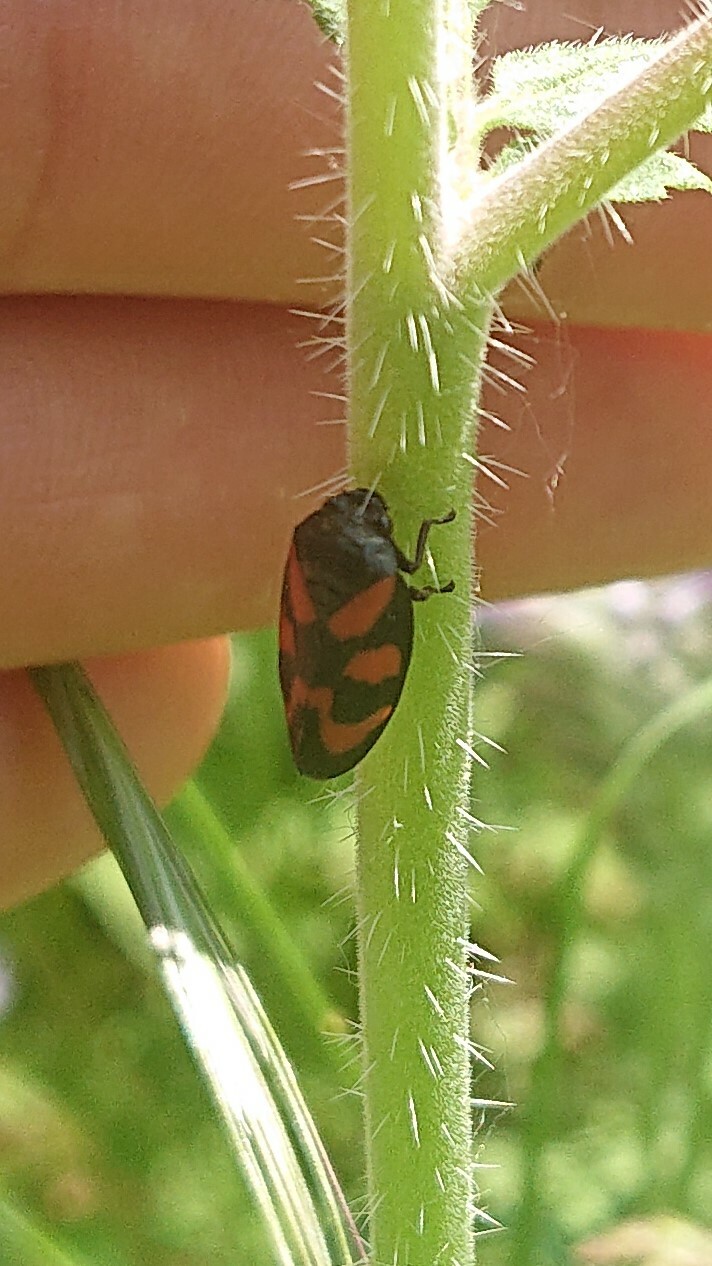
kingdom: Animalia
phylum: Arthropoda
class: Insecta
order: Hemiptera
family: Cercopidae
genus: Cercopis
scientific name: Cercopis vulnerata
